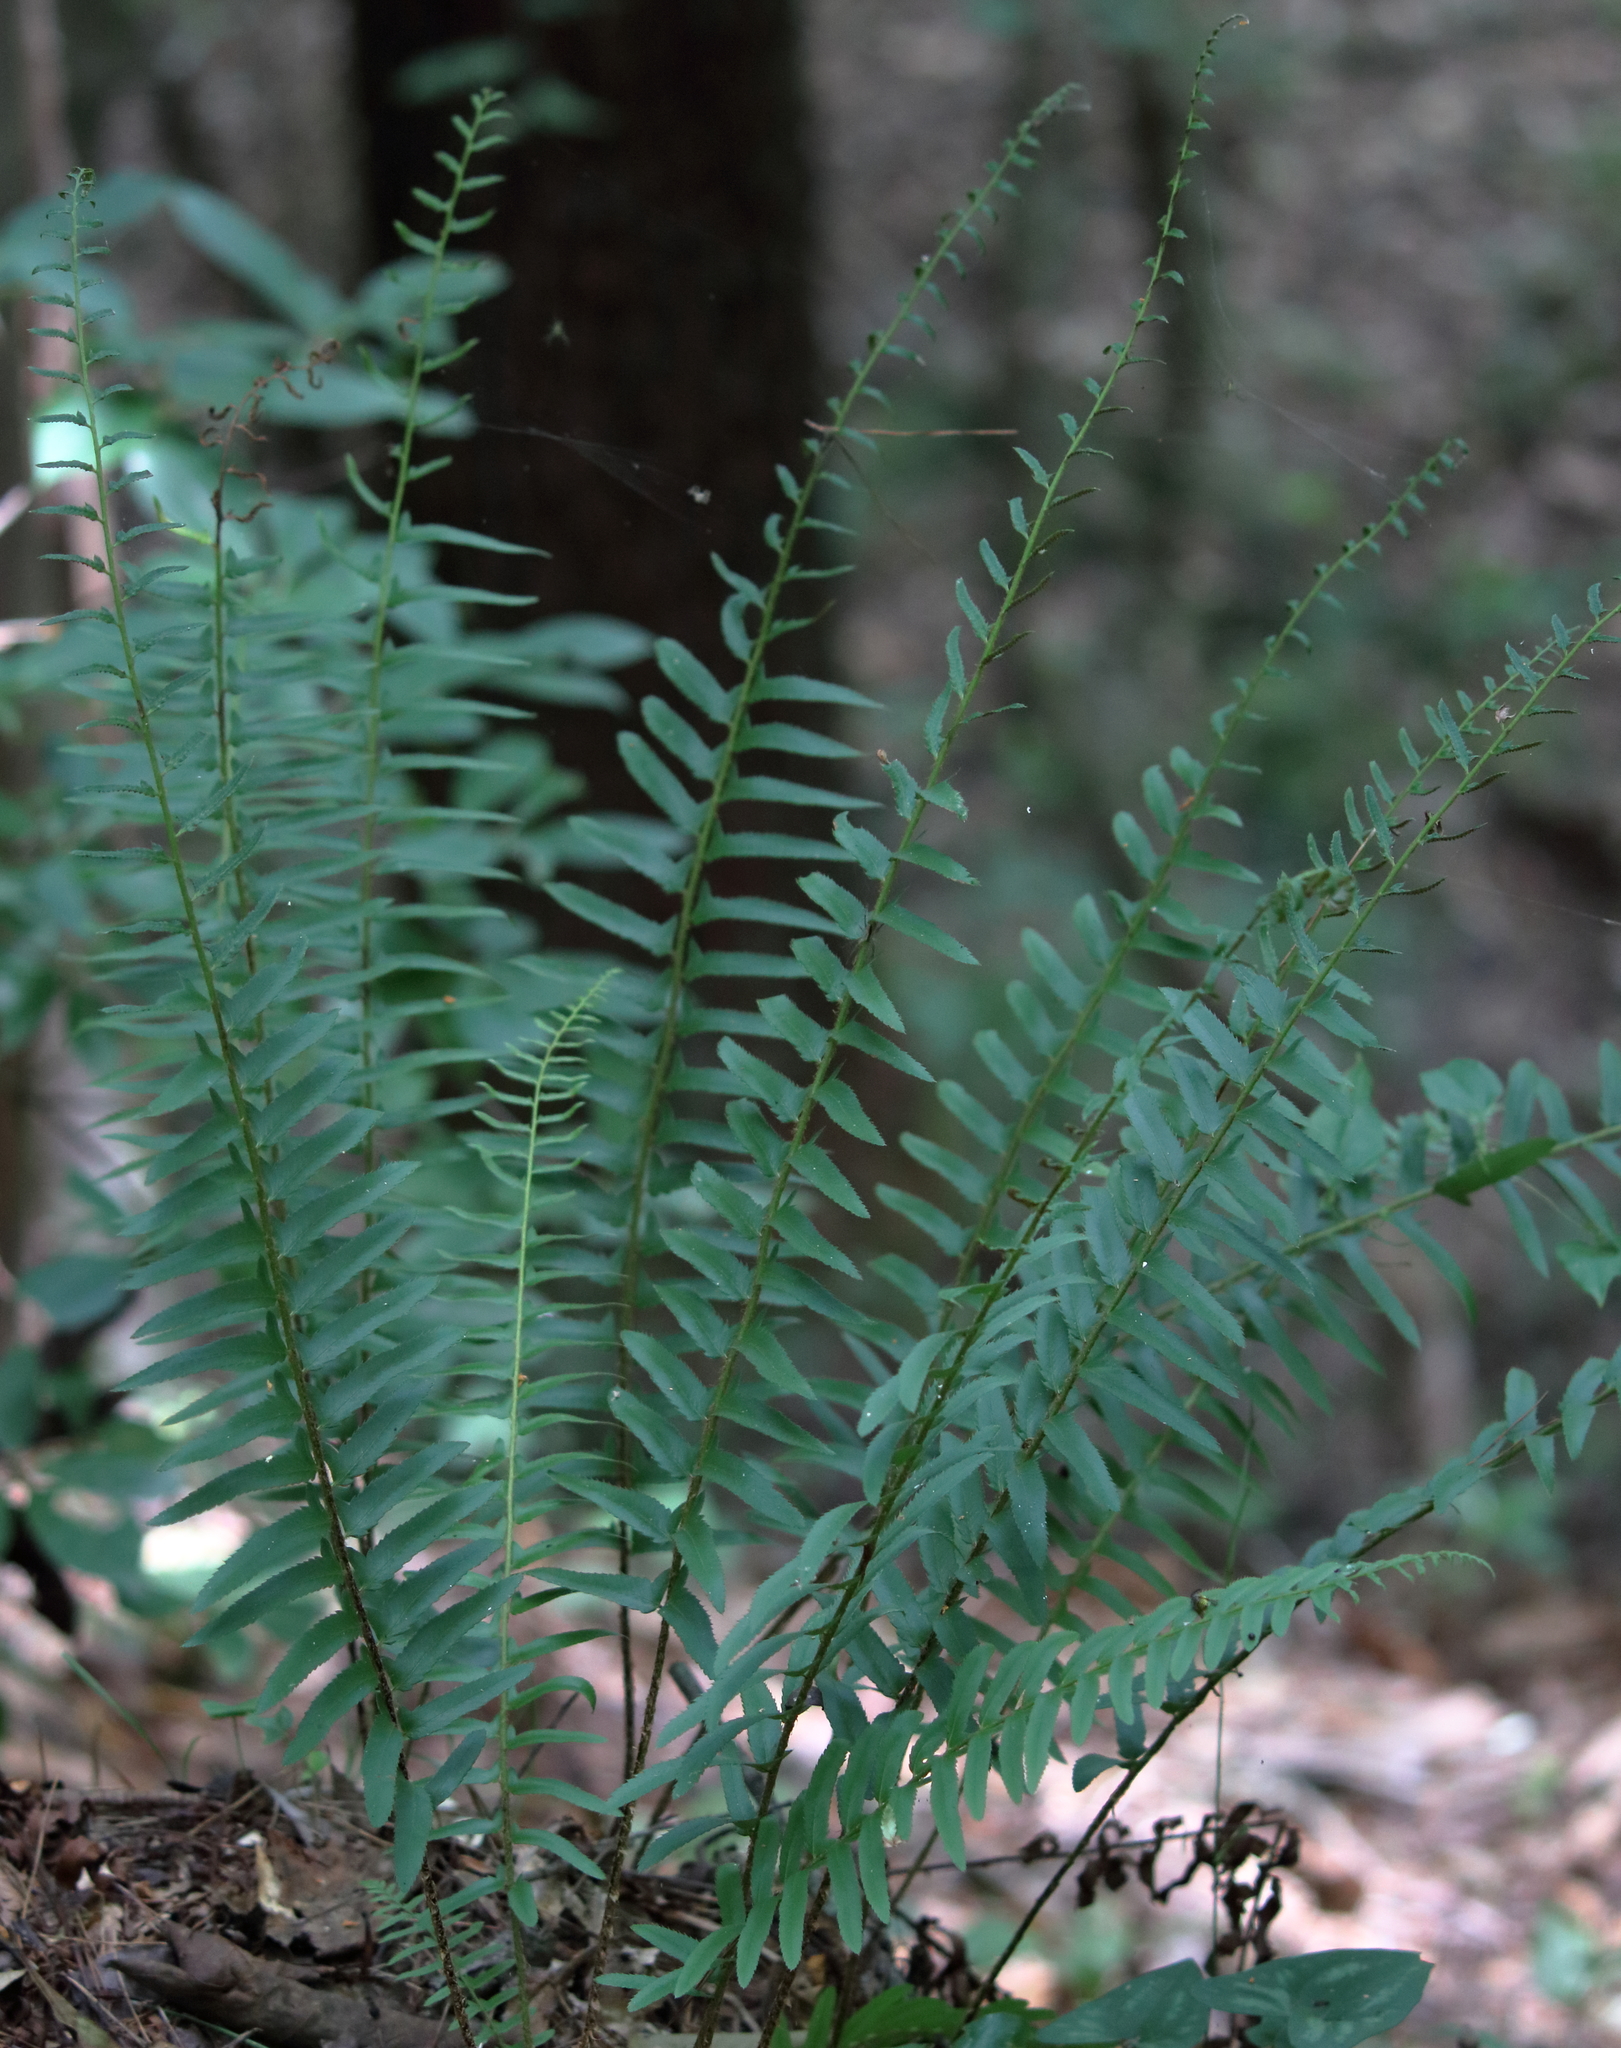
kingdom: Plantae
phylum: Tracheophyta
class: Polypodiopsida
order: Polypodiales
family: Dryopteridaceae
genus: Polystichum
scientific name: Polystichum acrostichoides
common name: Christmas fern
